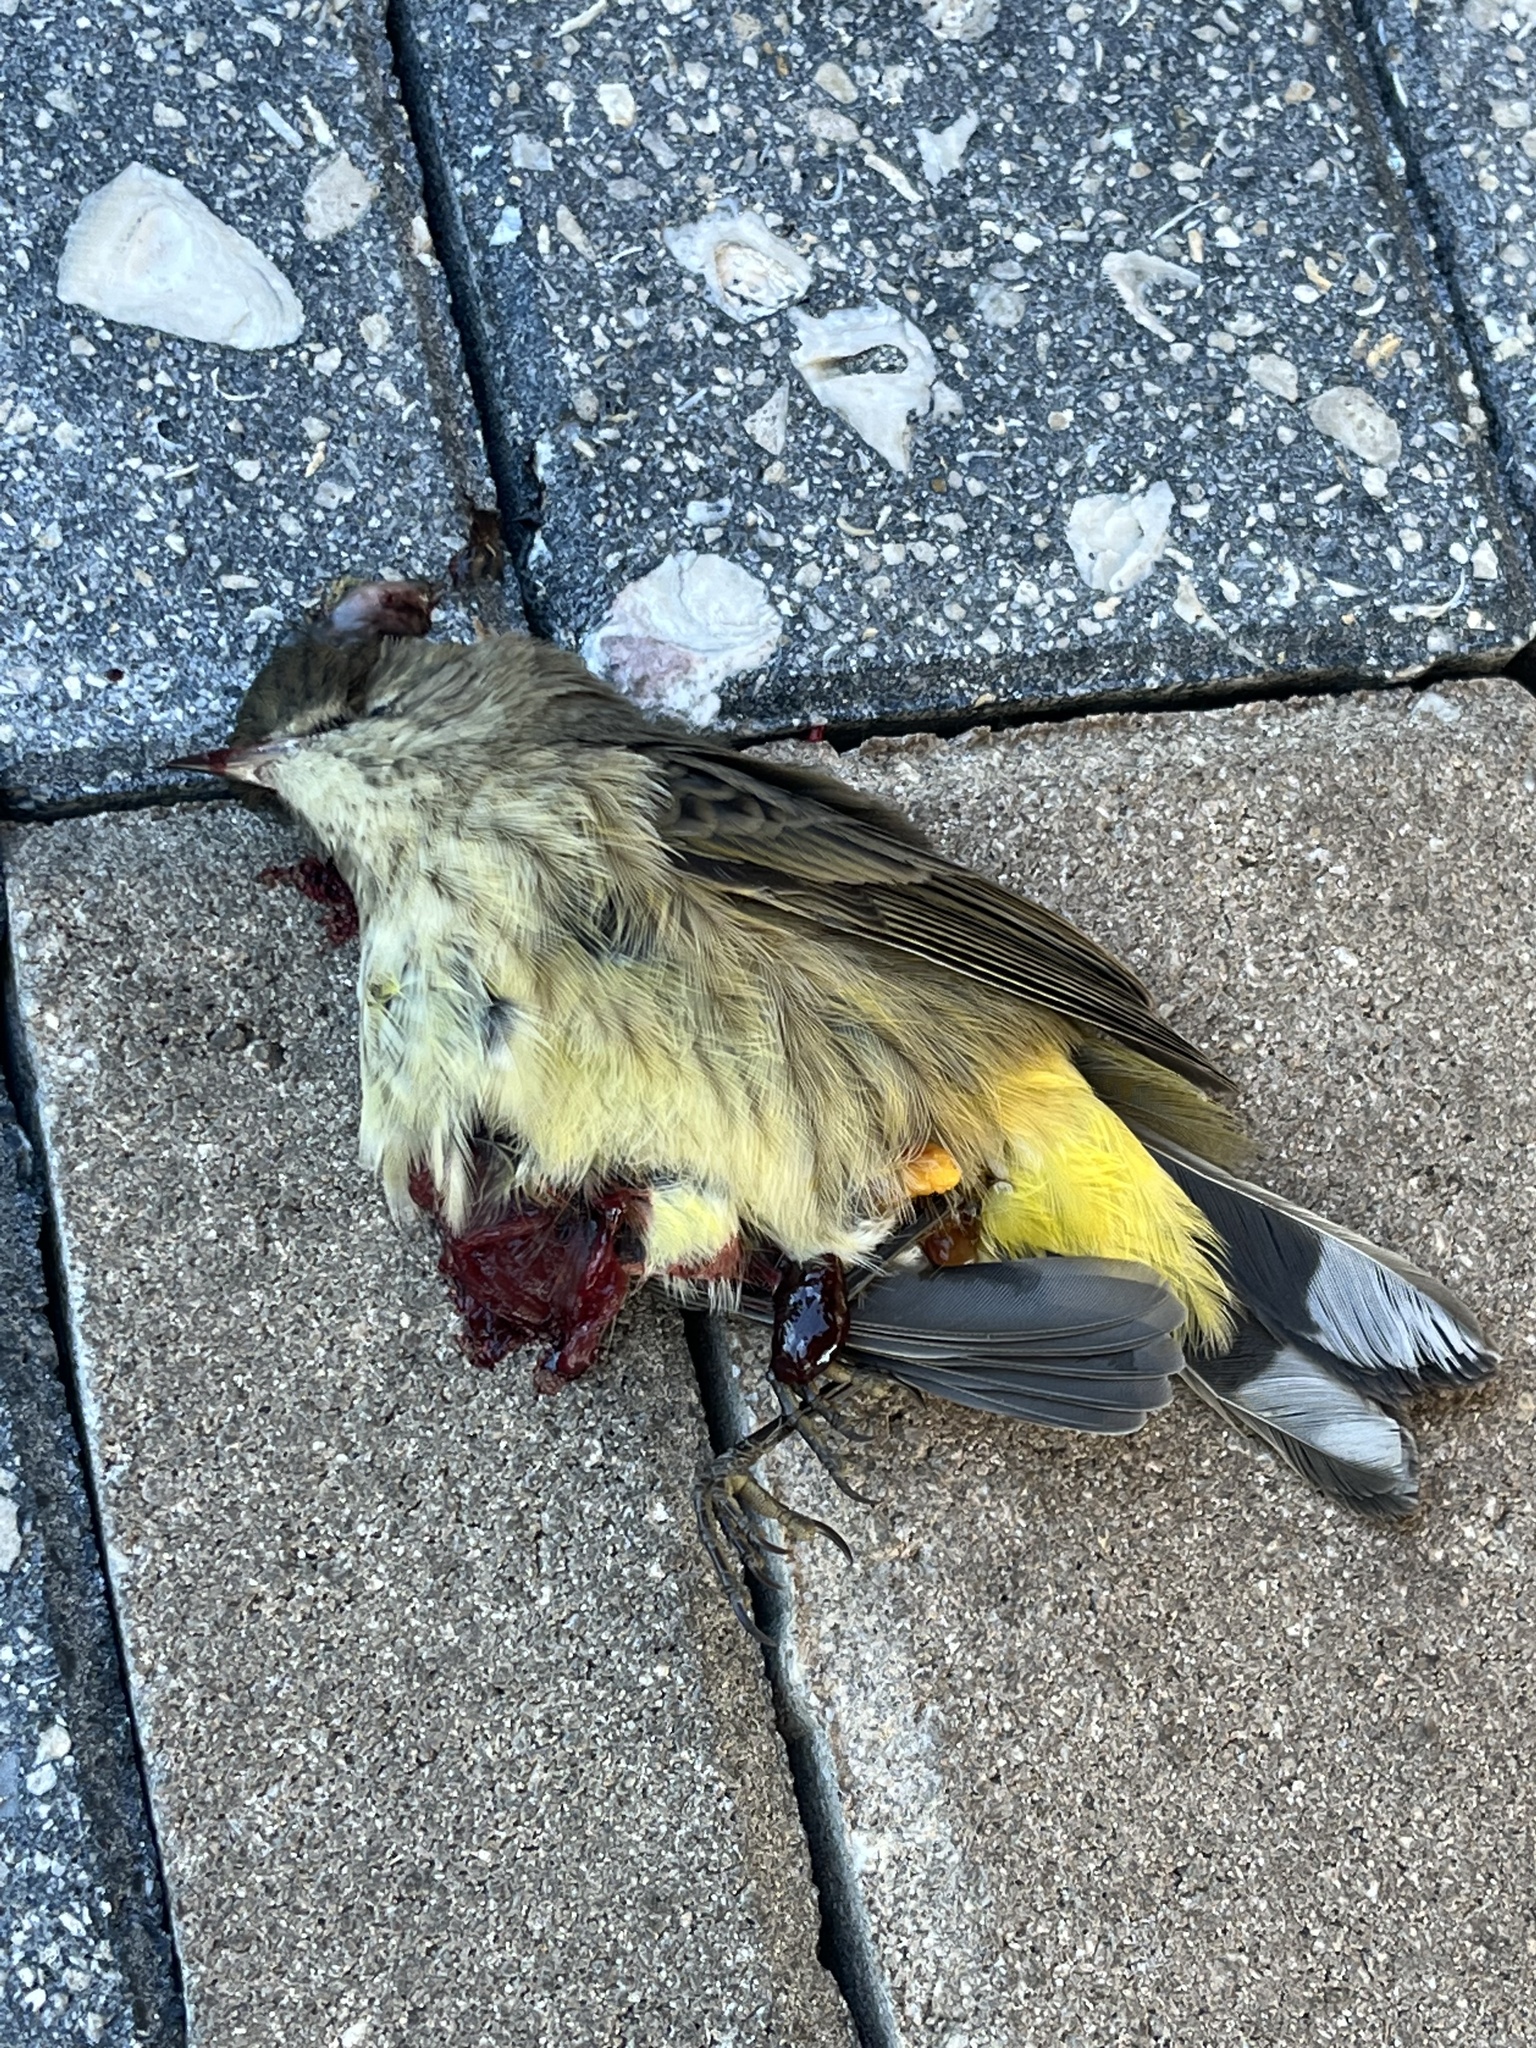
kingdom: Animalia
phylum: Chordata
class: Aves
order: Passeriformes
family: Parulidae
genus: Setophaga
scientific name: Setophaga palmarum
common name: Palm warbler
